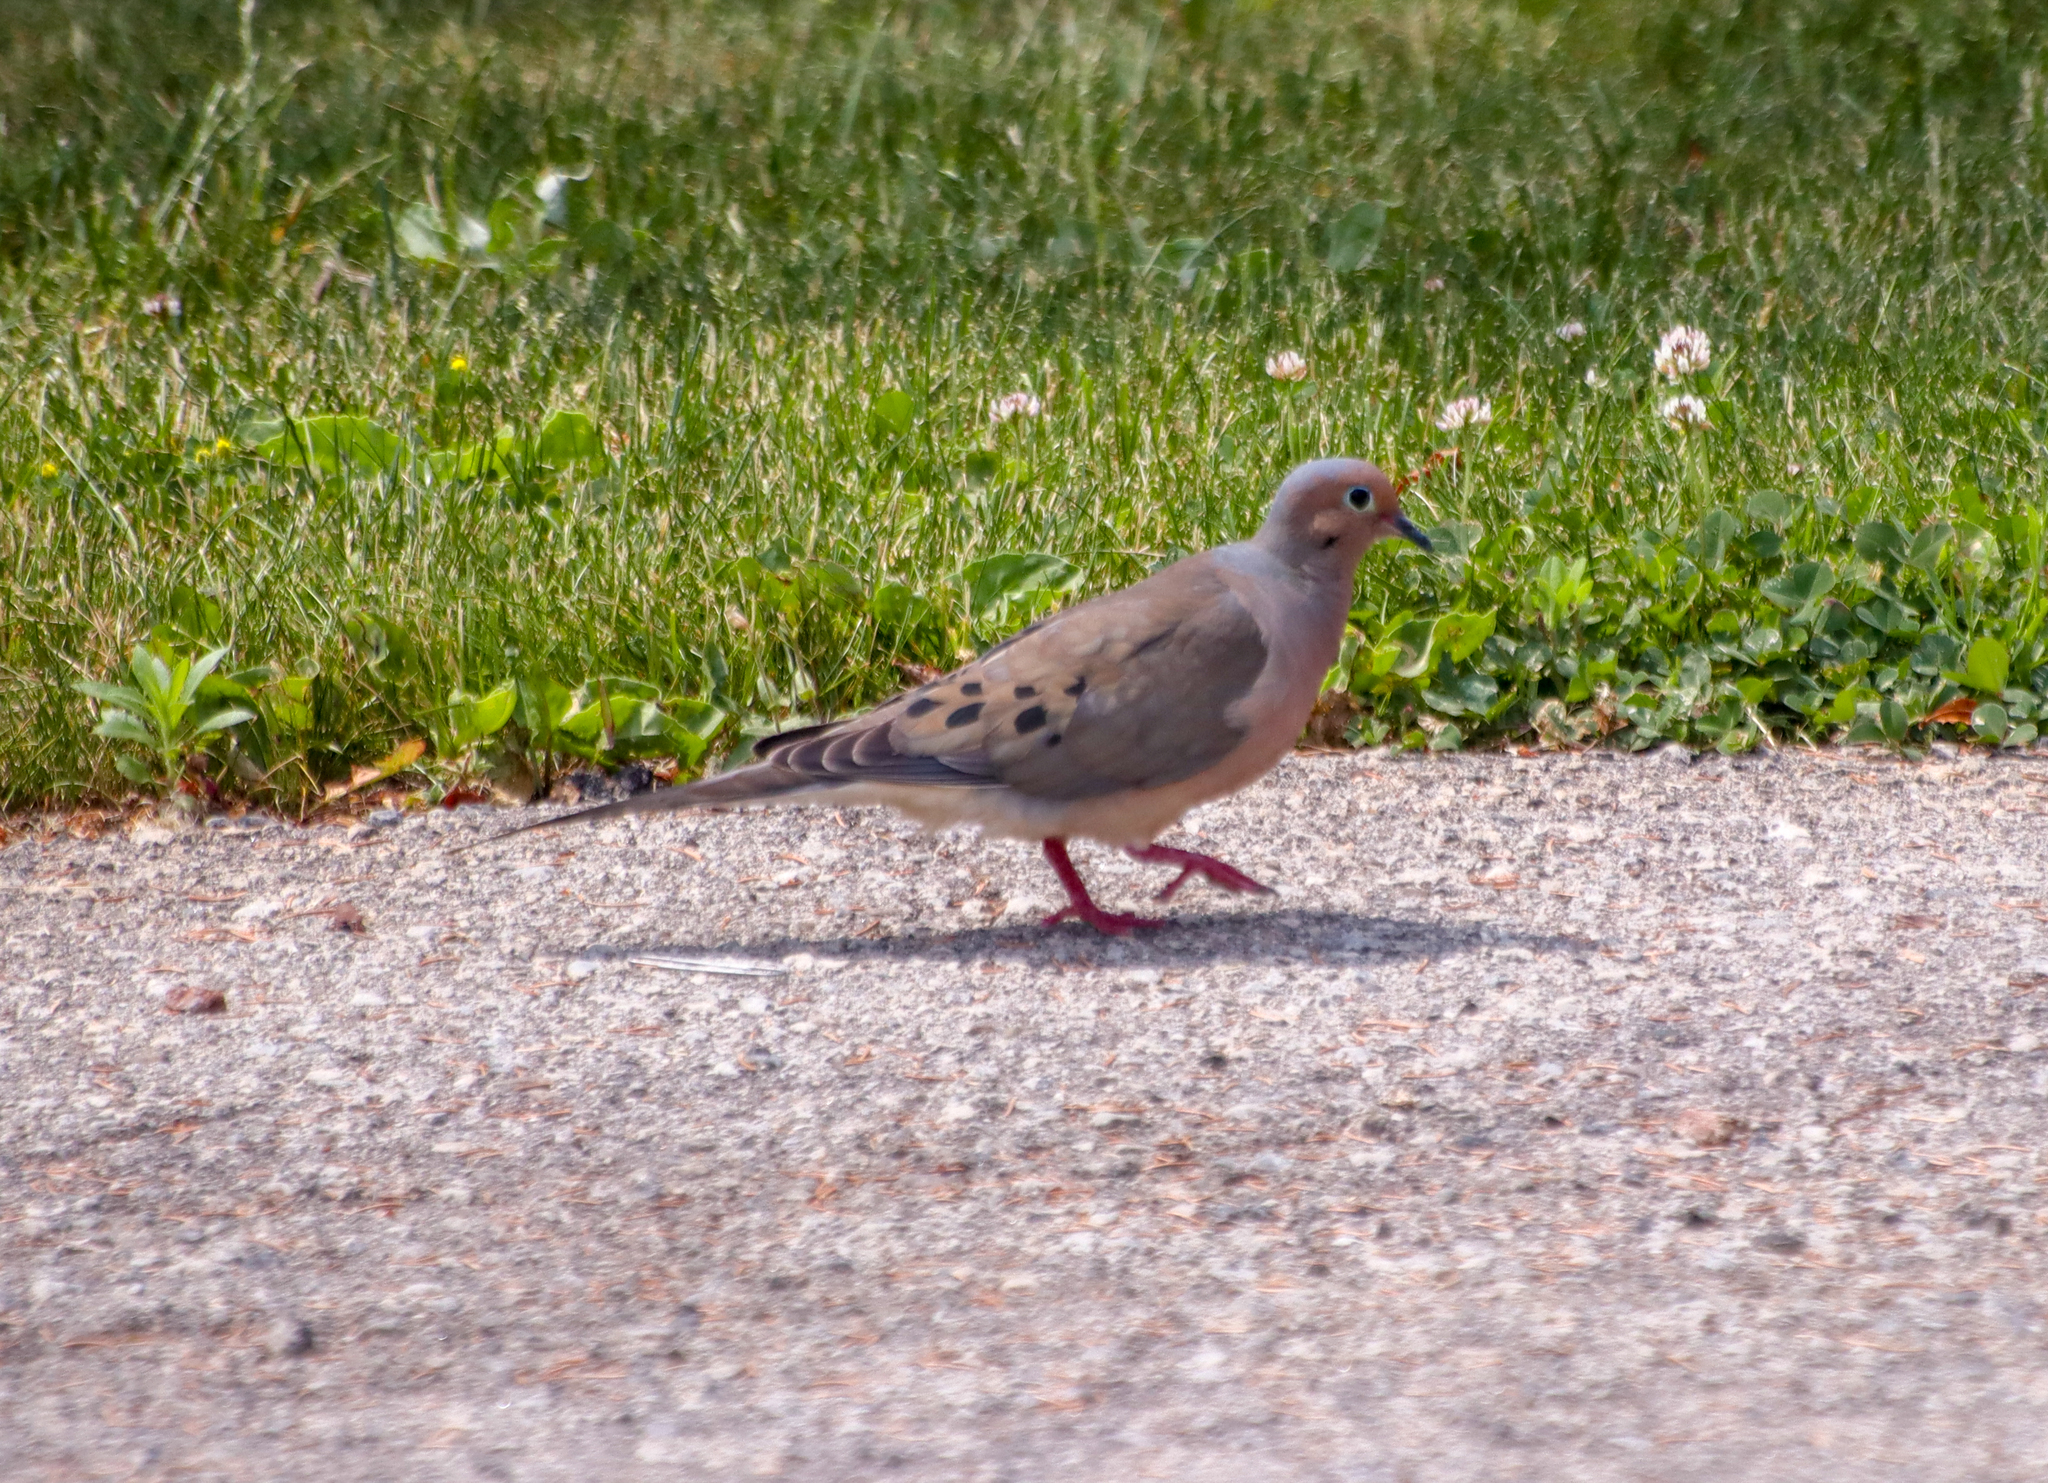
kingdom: Animalia
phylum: Chordata
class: Aves
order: Columbiformes
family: Columbidae
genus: Zenaida
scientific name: Zenaida macroura
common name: Mourning dove
